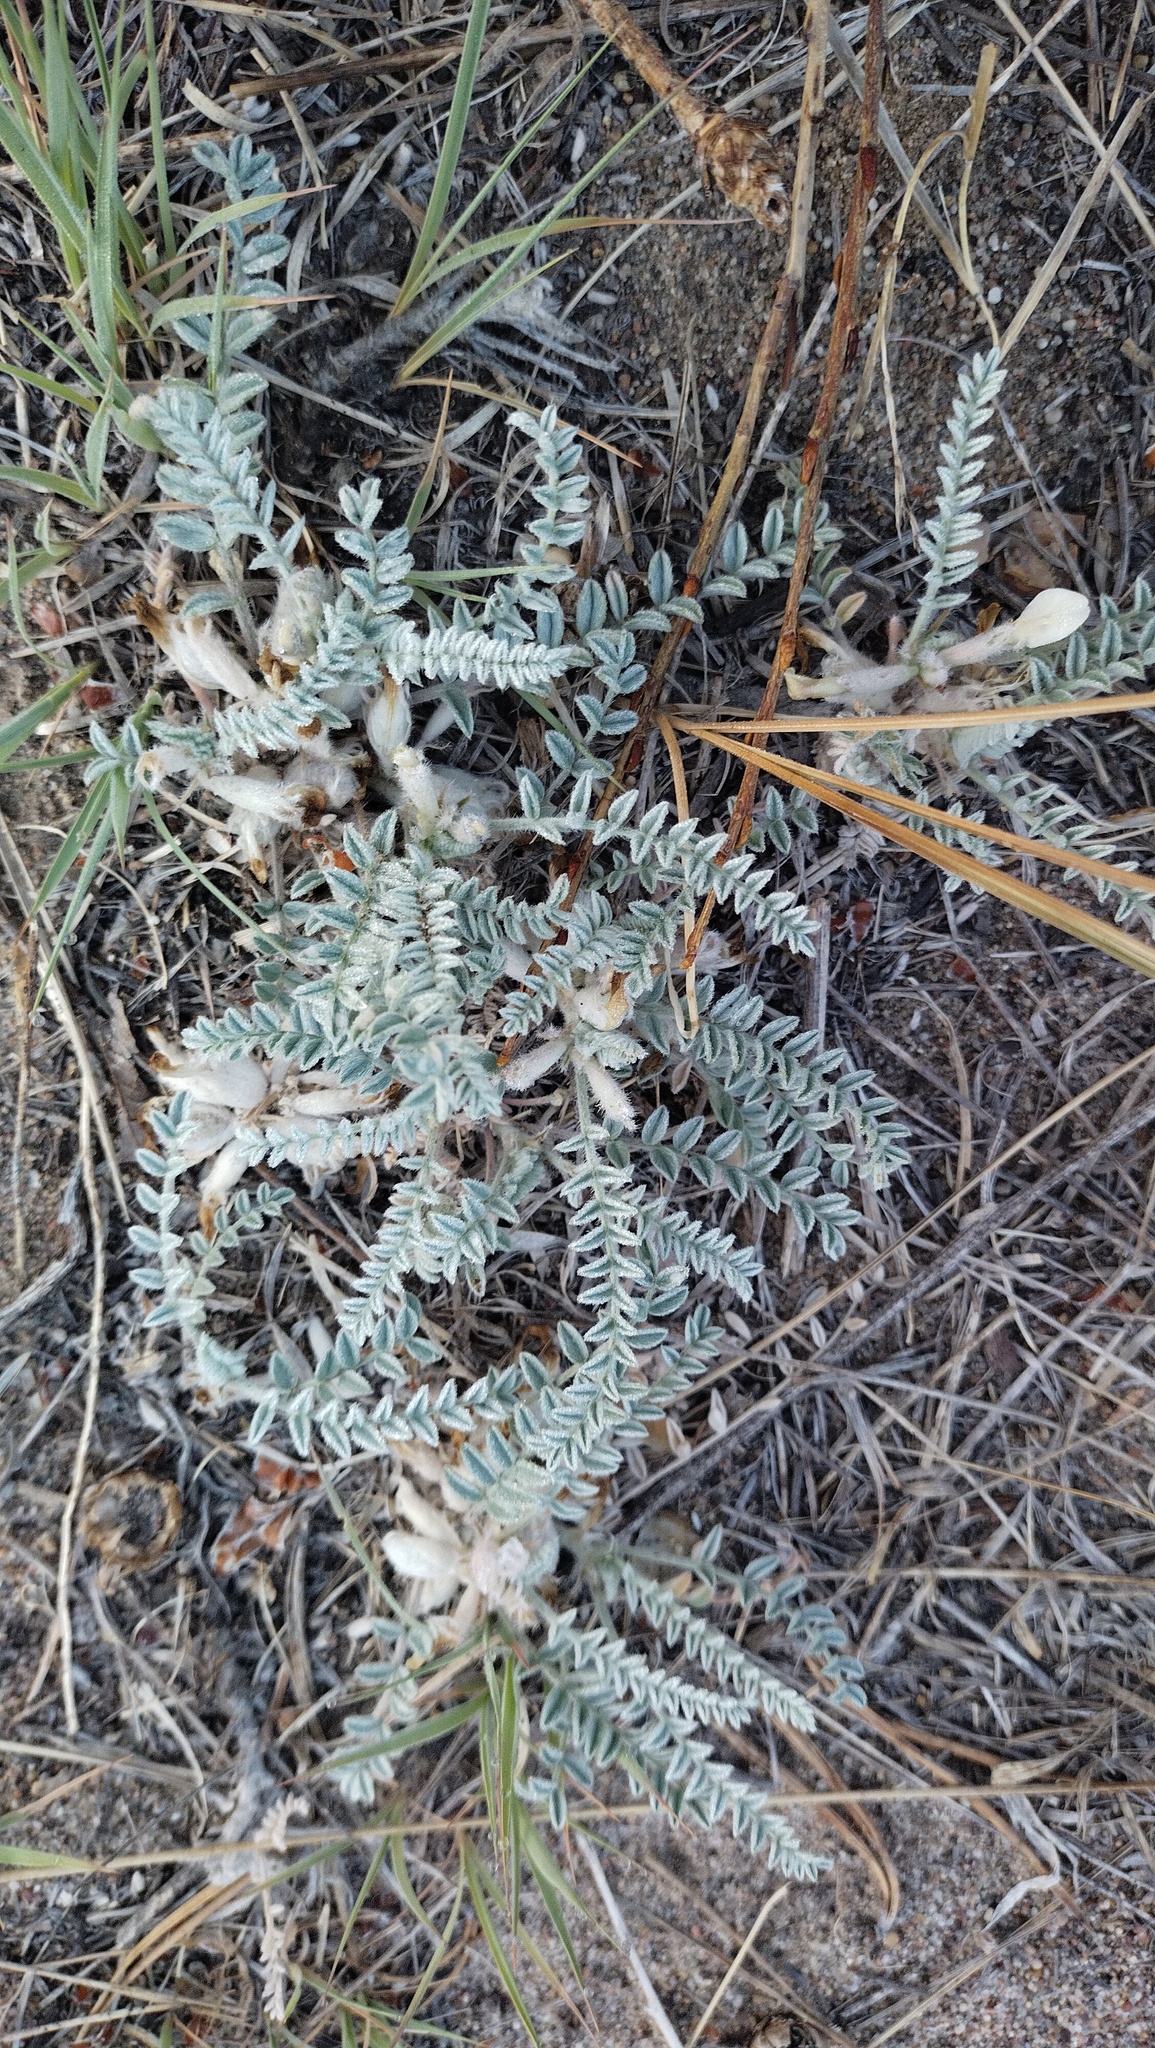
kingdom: Plantae
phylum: Tracheophyta
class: Magnoliopsida
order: Fabales
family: Fabaceae
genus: Astragalus
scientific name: Astragalus testiculatus
